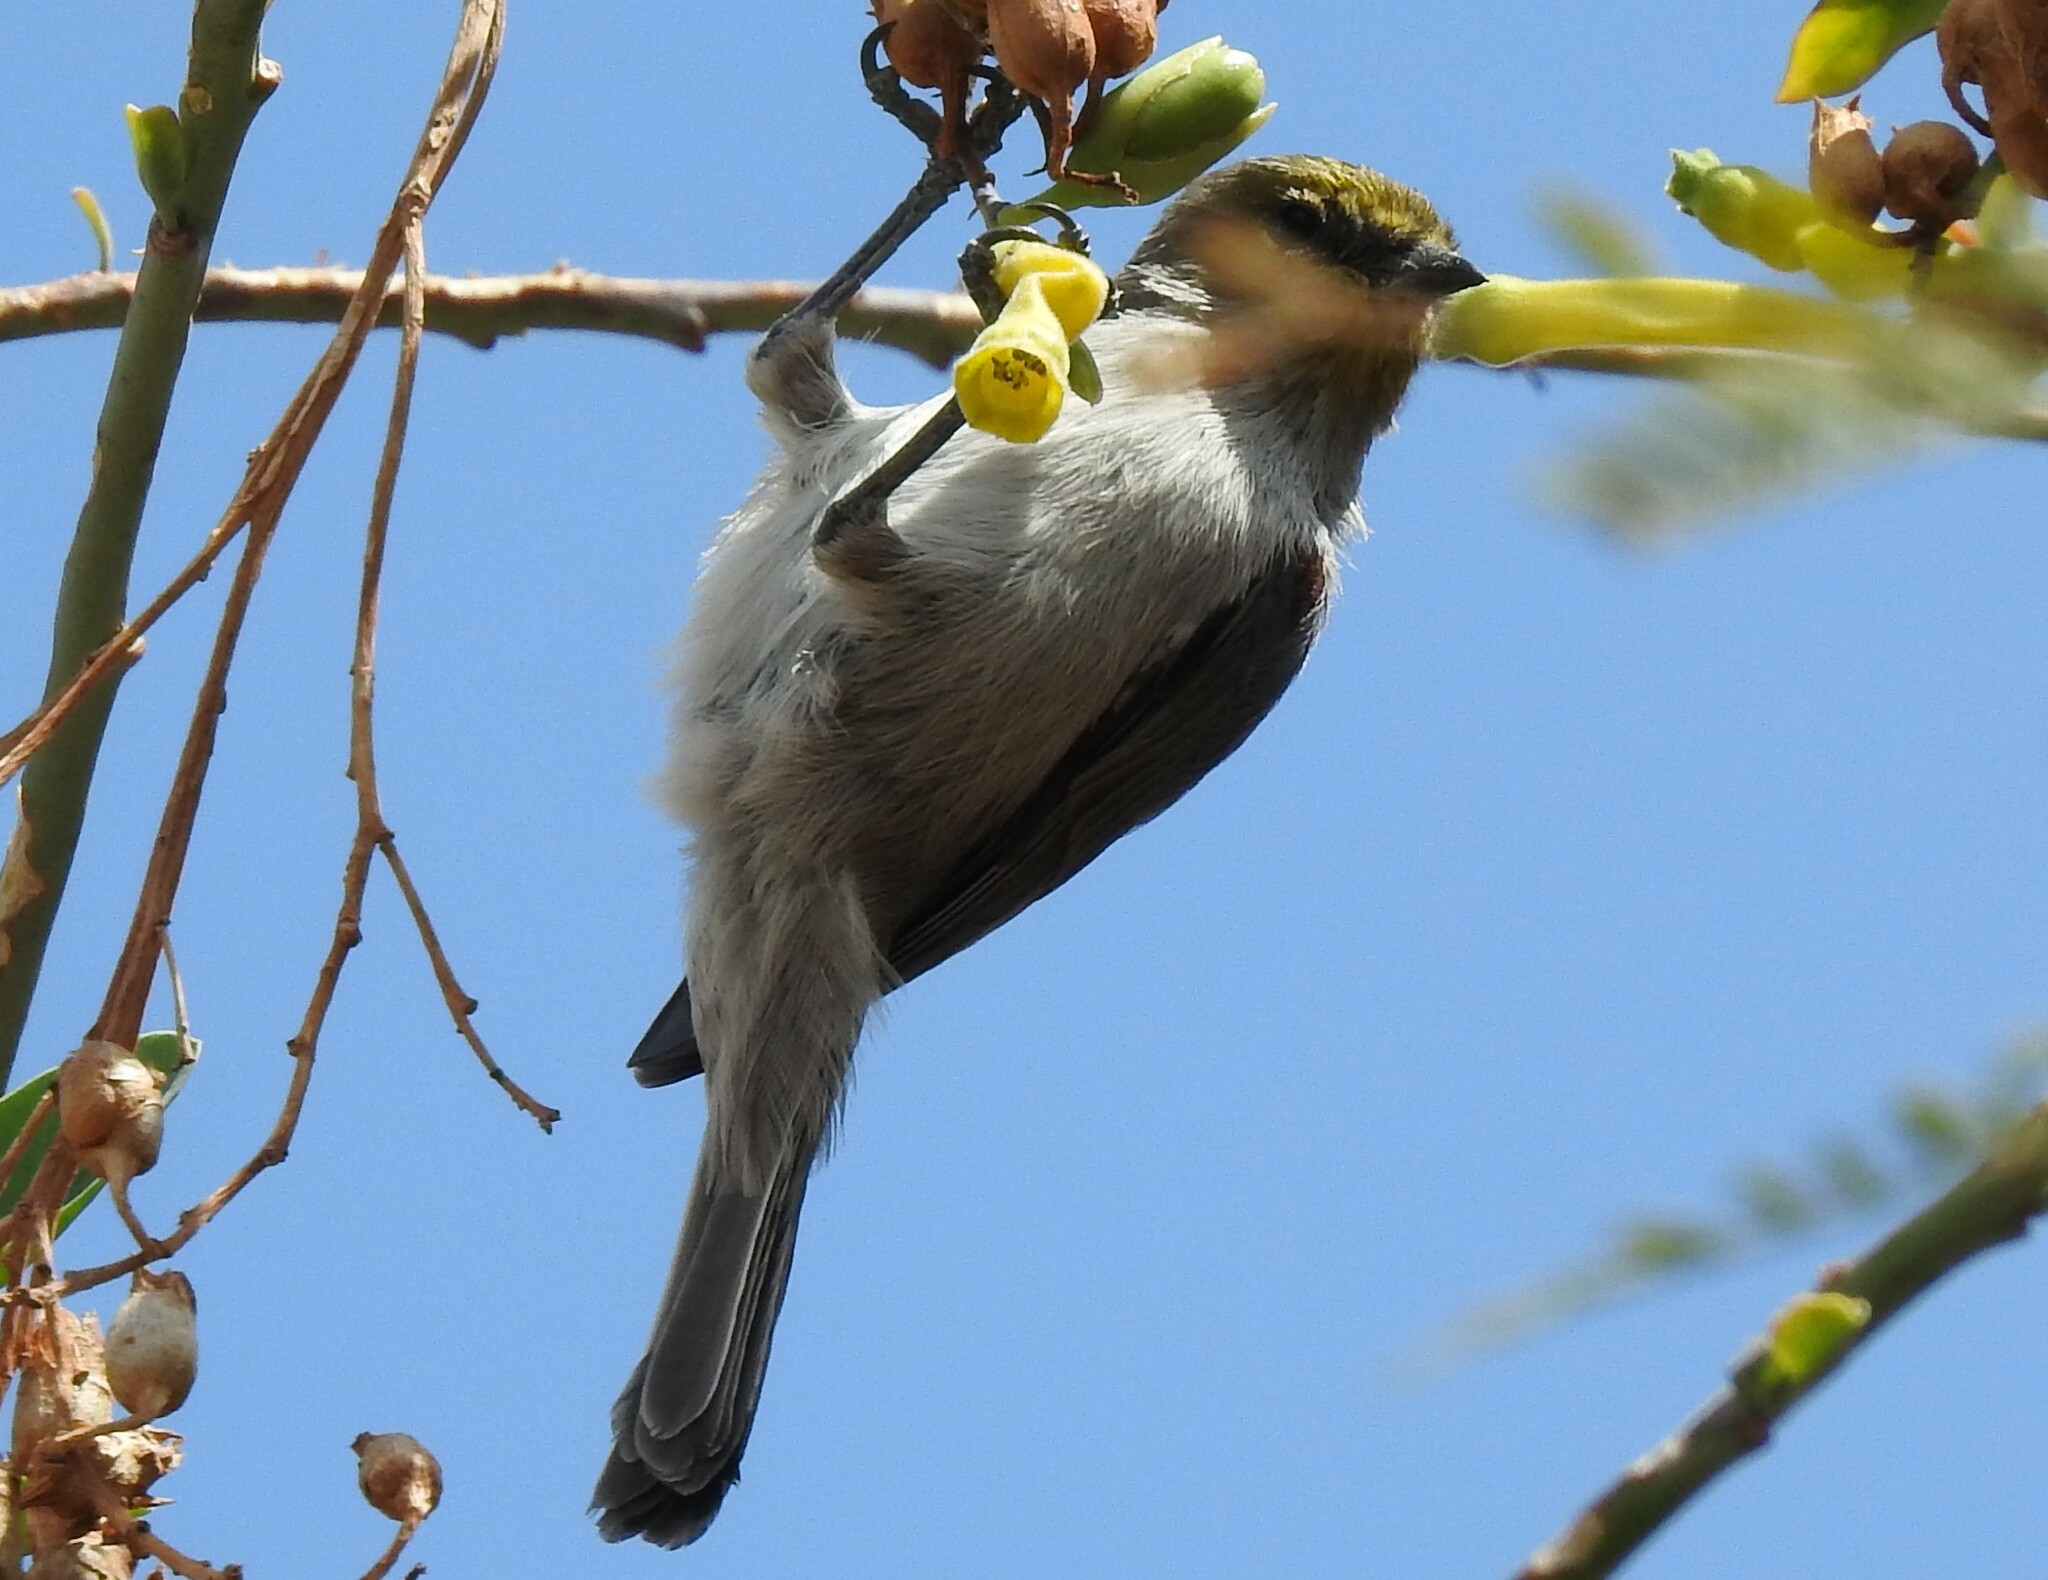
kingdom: Animalia
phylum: Chordata
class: Aves
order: Passeriformes
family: Remizidae
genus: Auriparus
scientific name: Auriparus flaviceps
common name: Verdin
